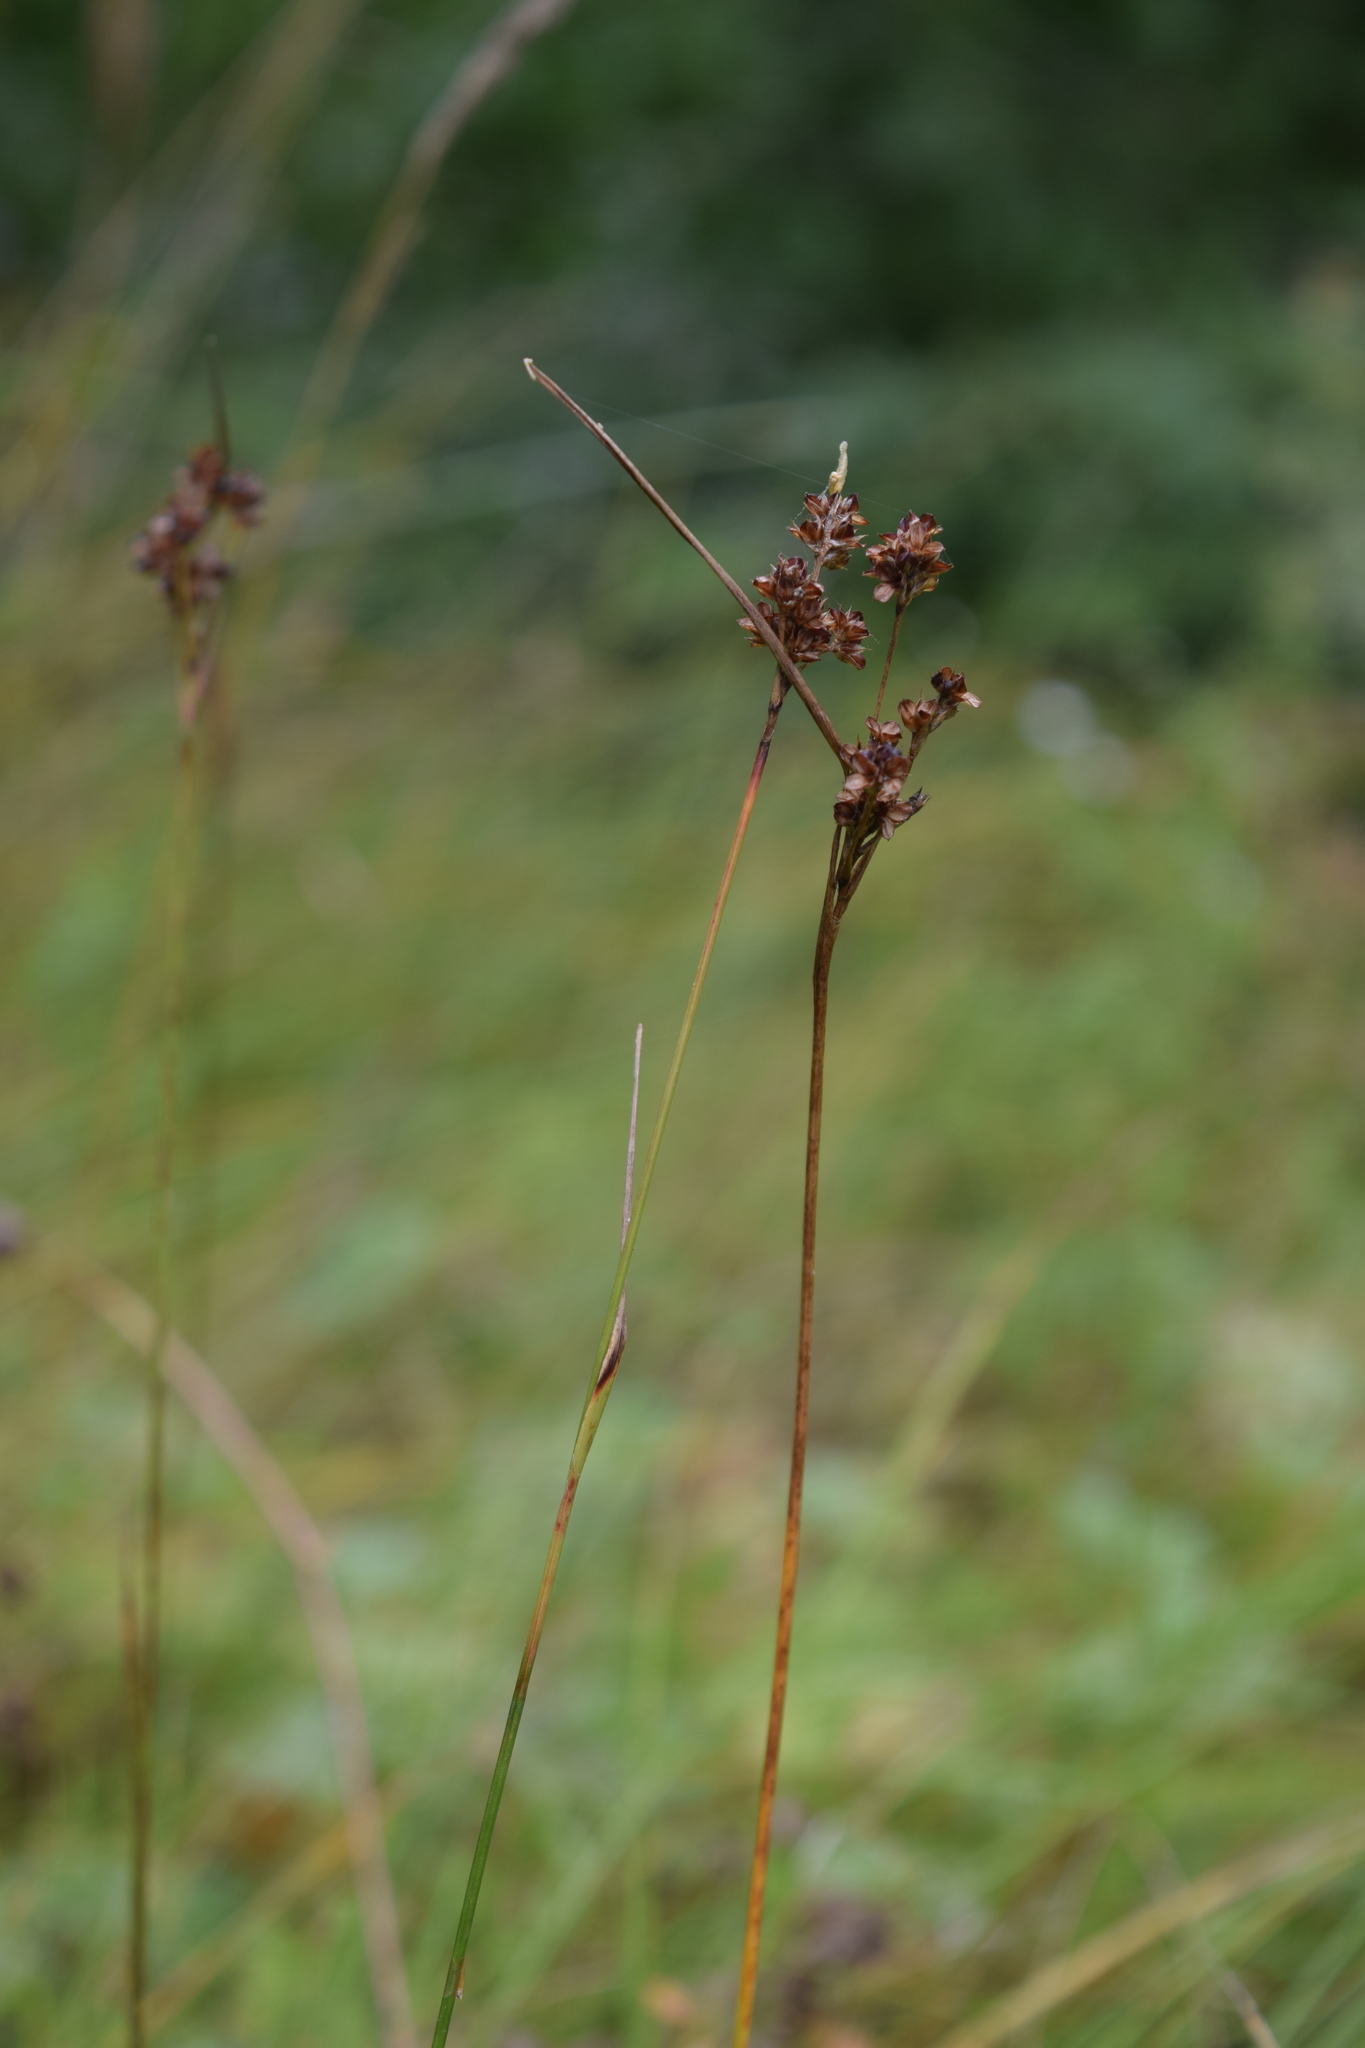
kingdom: Plantae
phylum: Tracheophyta
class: Liliopsida
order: Poales
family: Juncaceae
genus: Luzula
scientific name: Luzula multiflora
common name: Heath wood-rush
